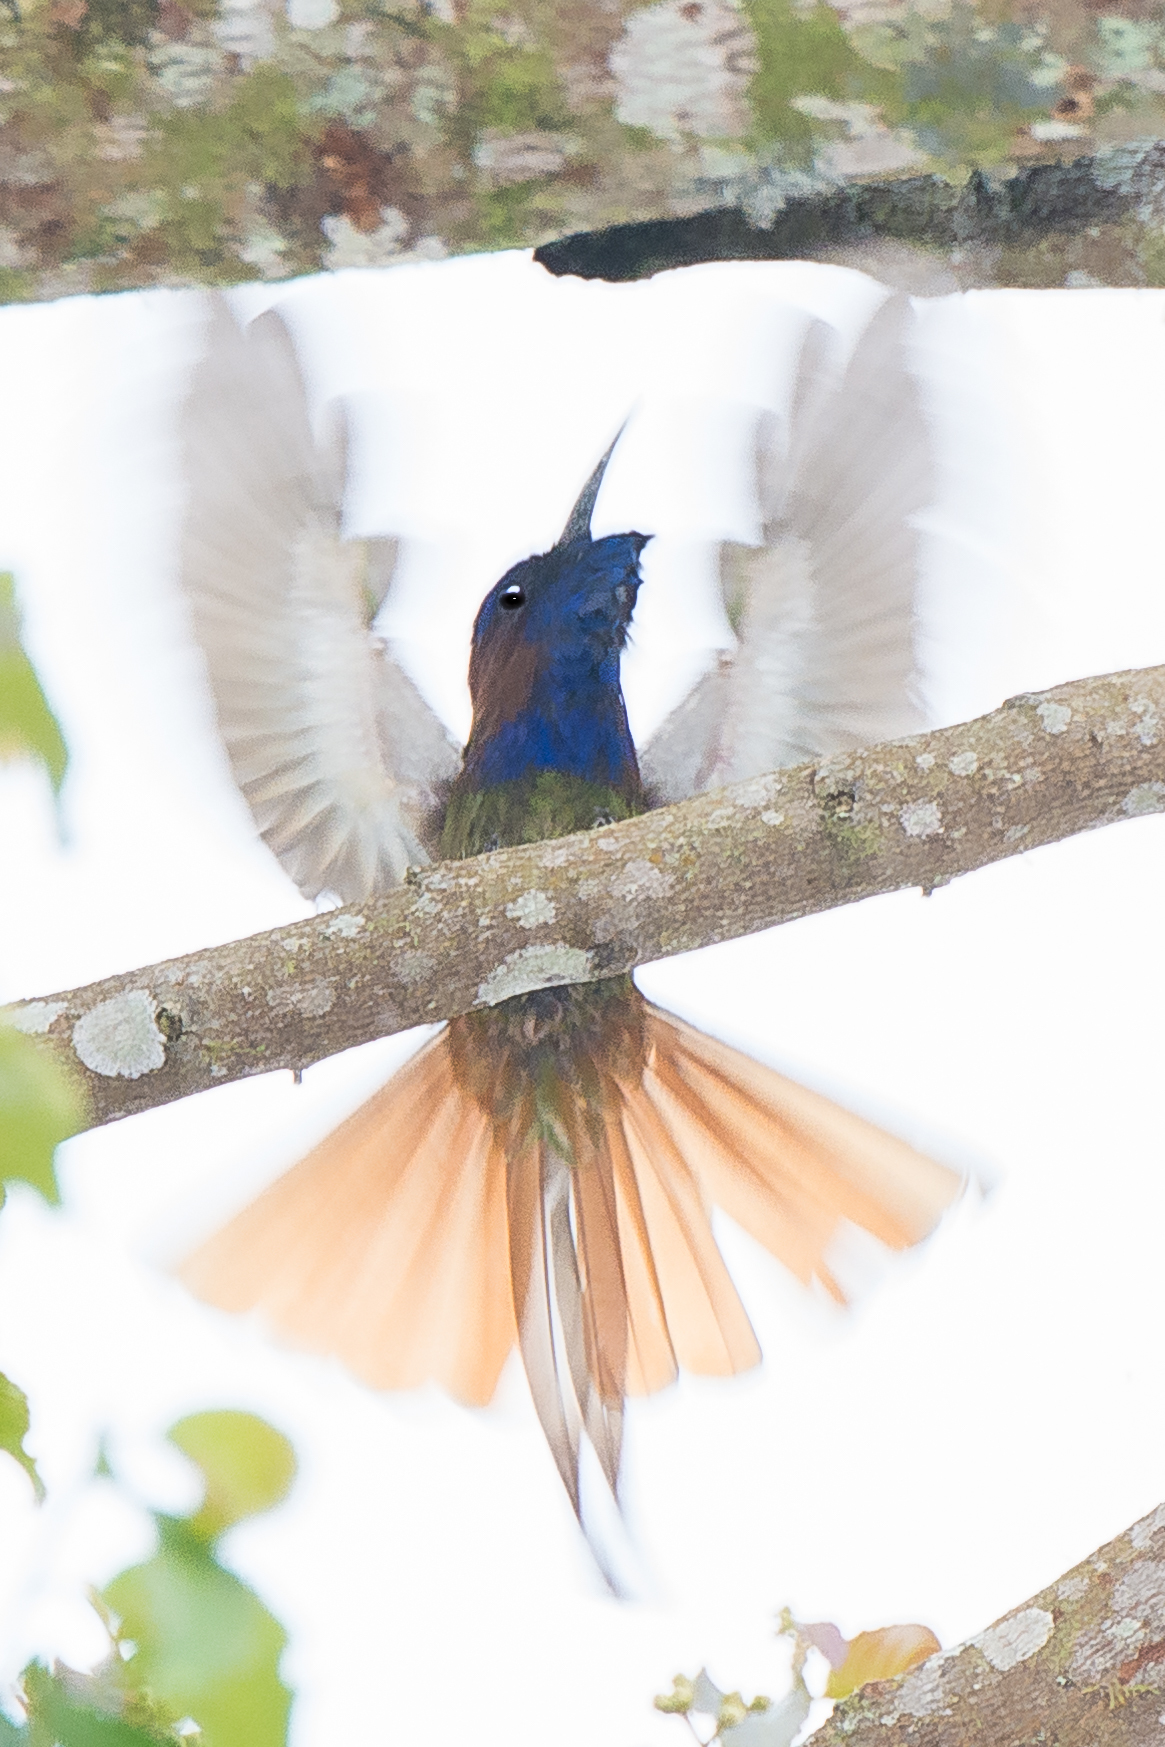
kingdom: Animalia
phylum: Chordata
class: Aves
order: Coraciiformes
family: Meropidae
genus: Meropogon
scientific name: Meropogon forsteni
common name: Purple-bearded bee-eater
